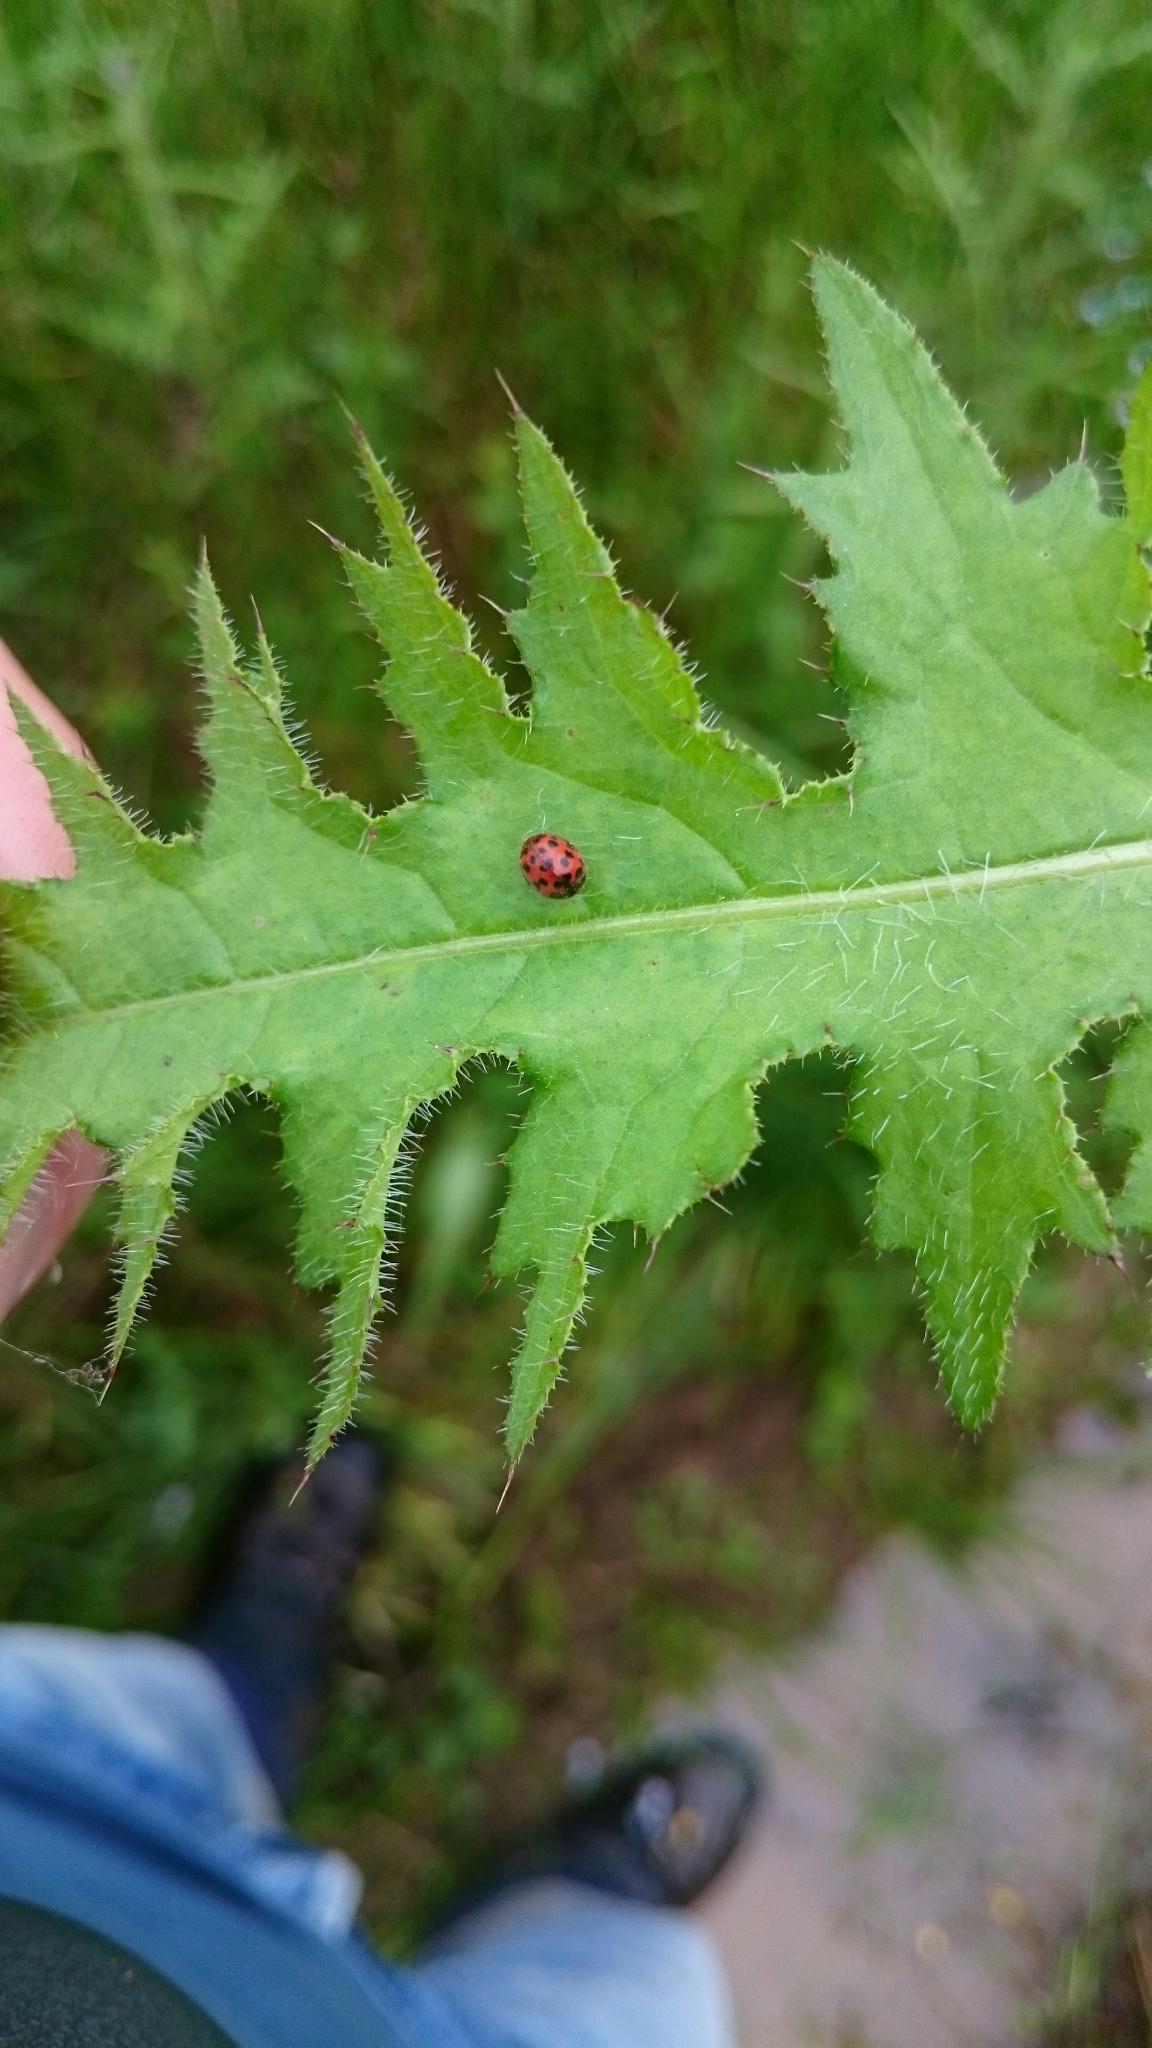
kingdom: Animalia
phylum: Arthropoda
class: Insecta
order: Coleoptera
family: Coccinellidae
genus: Subcoccinella
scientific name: Subcoccinella vigintiquatuorpunctata
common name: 24-spot ladybird
